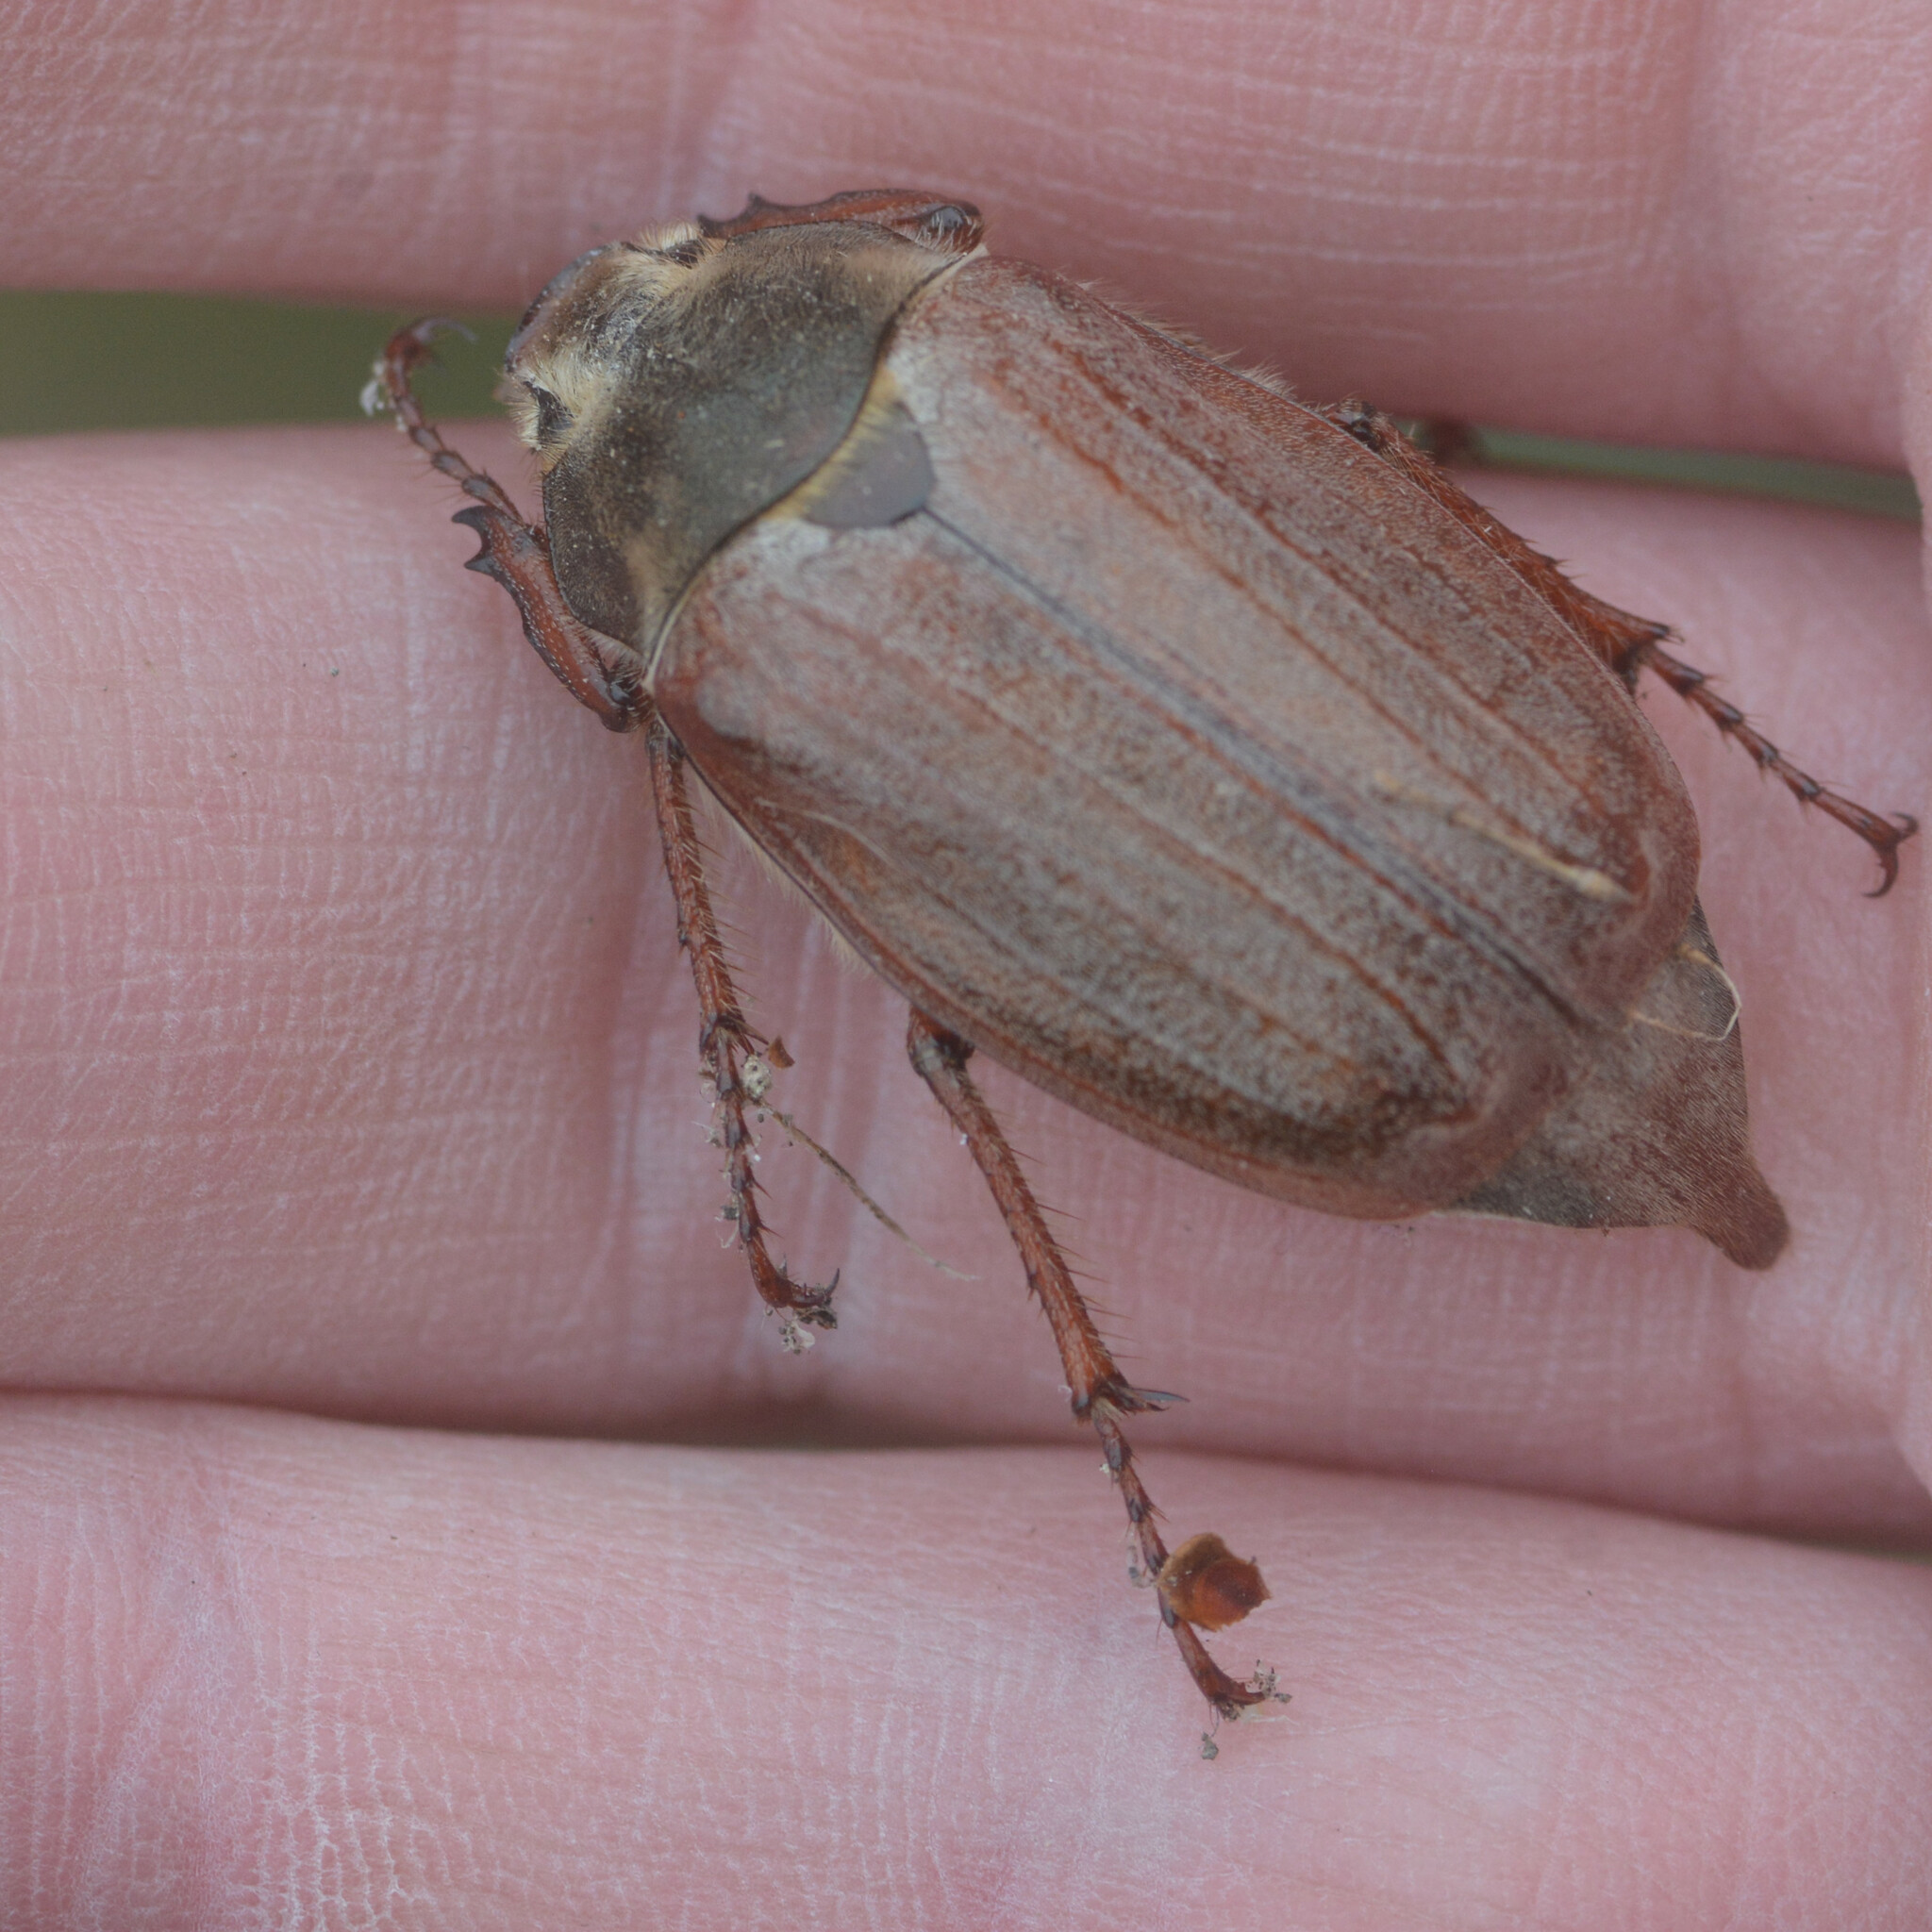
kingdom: Animalia
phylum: Arthropoda
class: Insecta
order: Coleoptera
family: Scarabaeidae
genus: Melolontha
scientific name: Melolontha melolontha
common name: Cockchafer maybeetle
